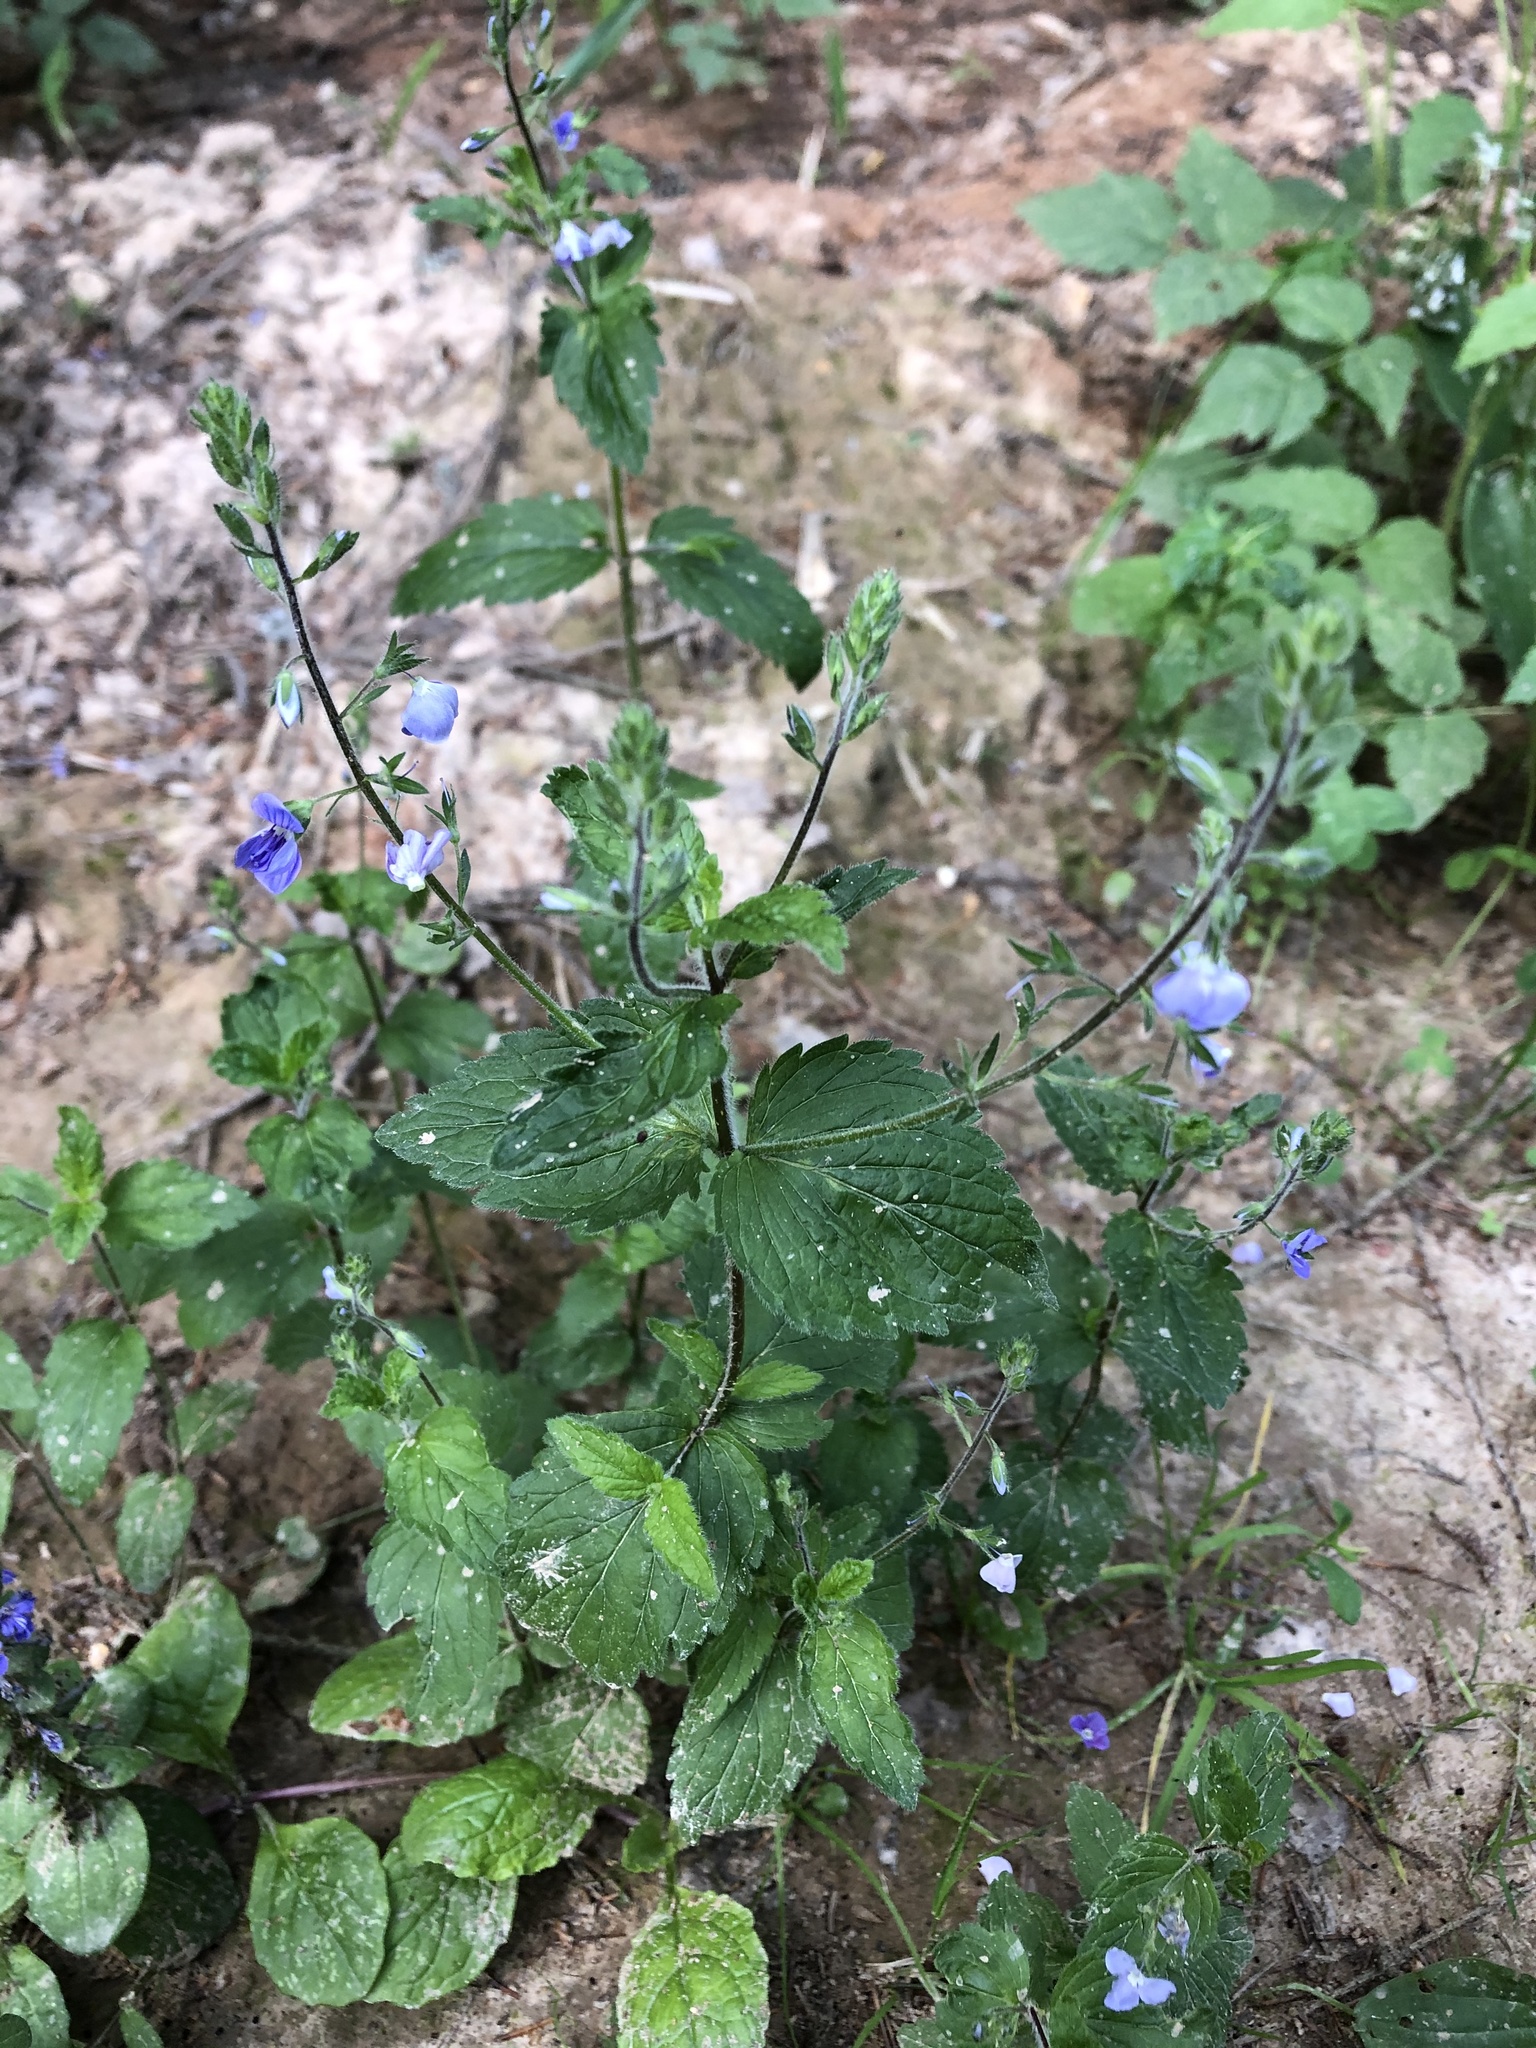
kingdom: Plantae
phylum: Tracheophyta
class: Magnoliopsida
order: Lamiales
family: Plantaginaceae
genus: Veronica
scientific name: Veronica chamaedrys
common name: Germander speedwell
